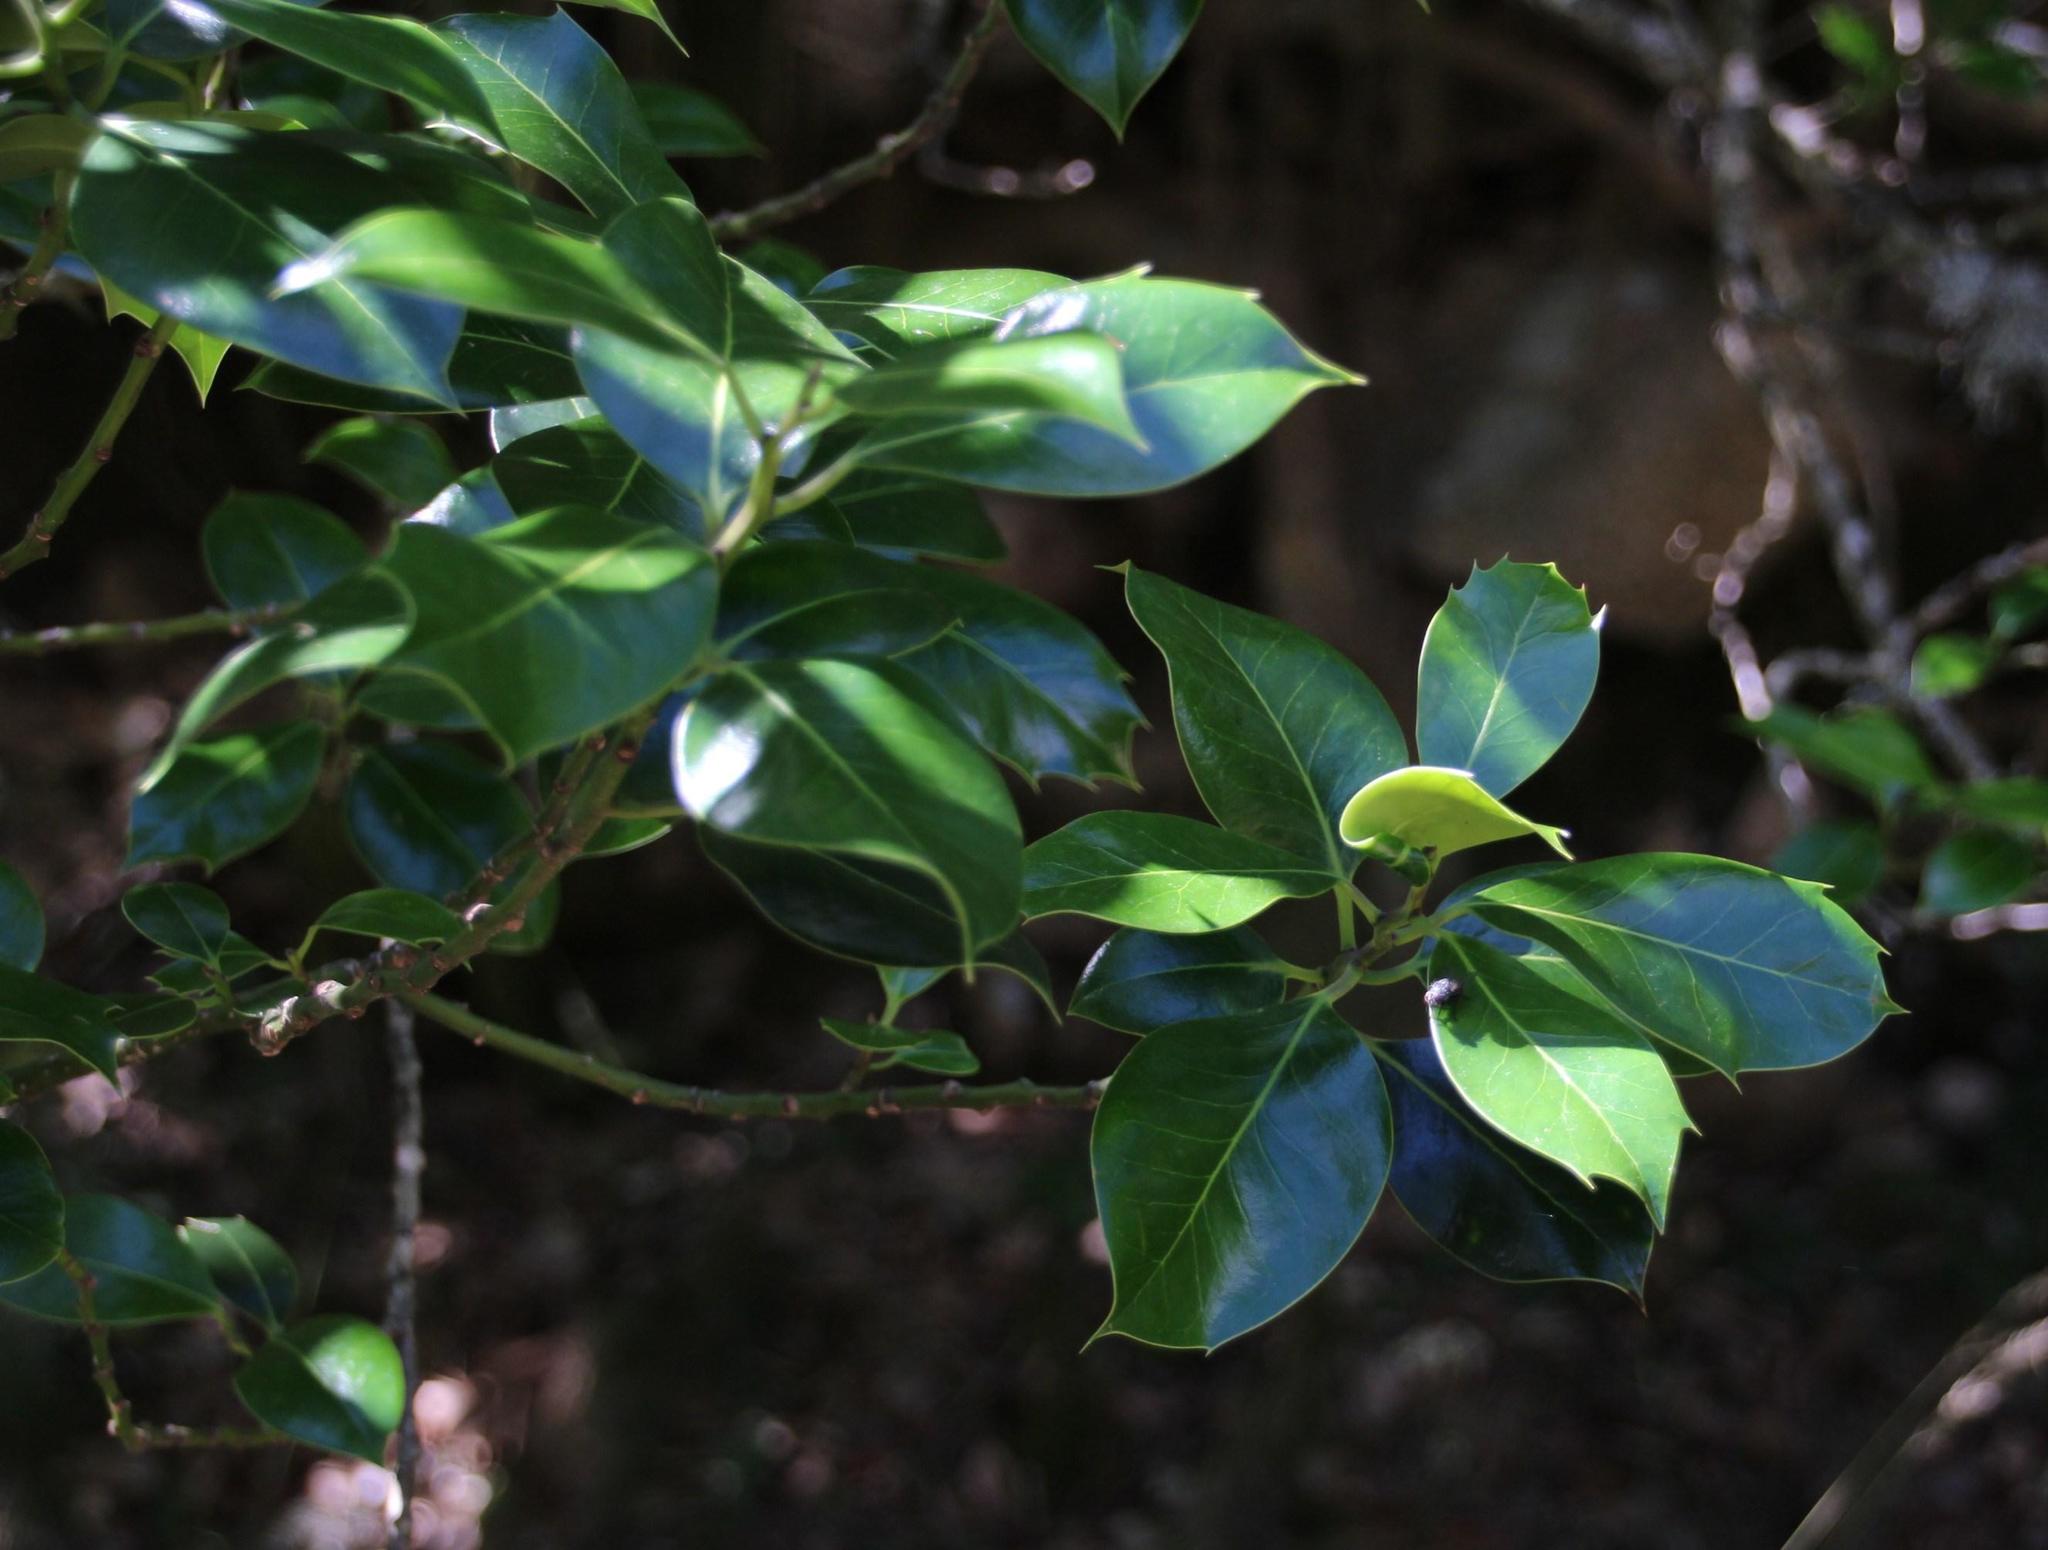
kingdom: Plantae
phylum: Tracheophyta
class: Magnoliopsida
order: Aquifoliales
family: Aquifoliaceae
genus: Ilex
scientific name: Ilex aquifolium
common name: English holly
